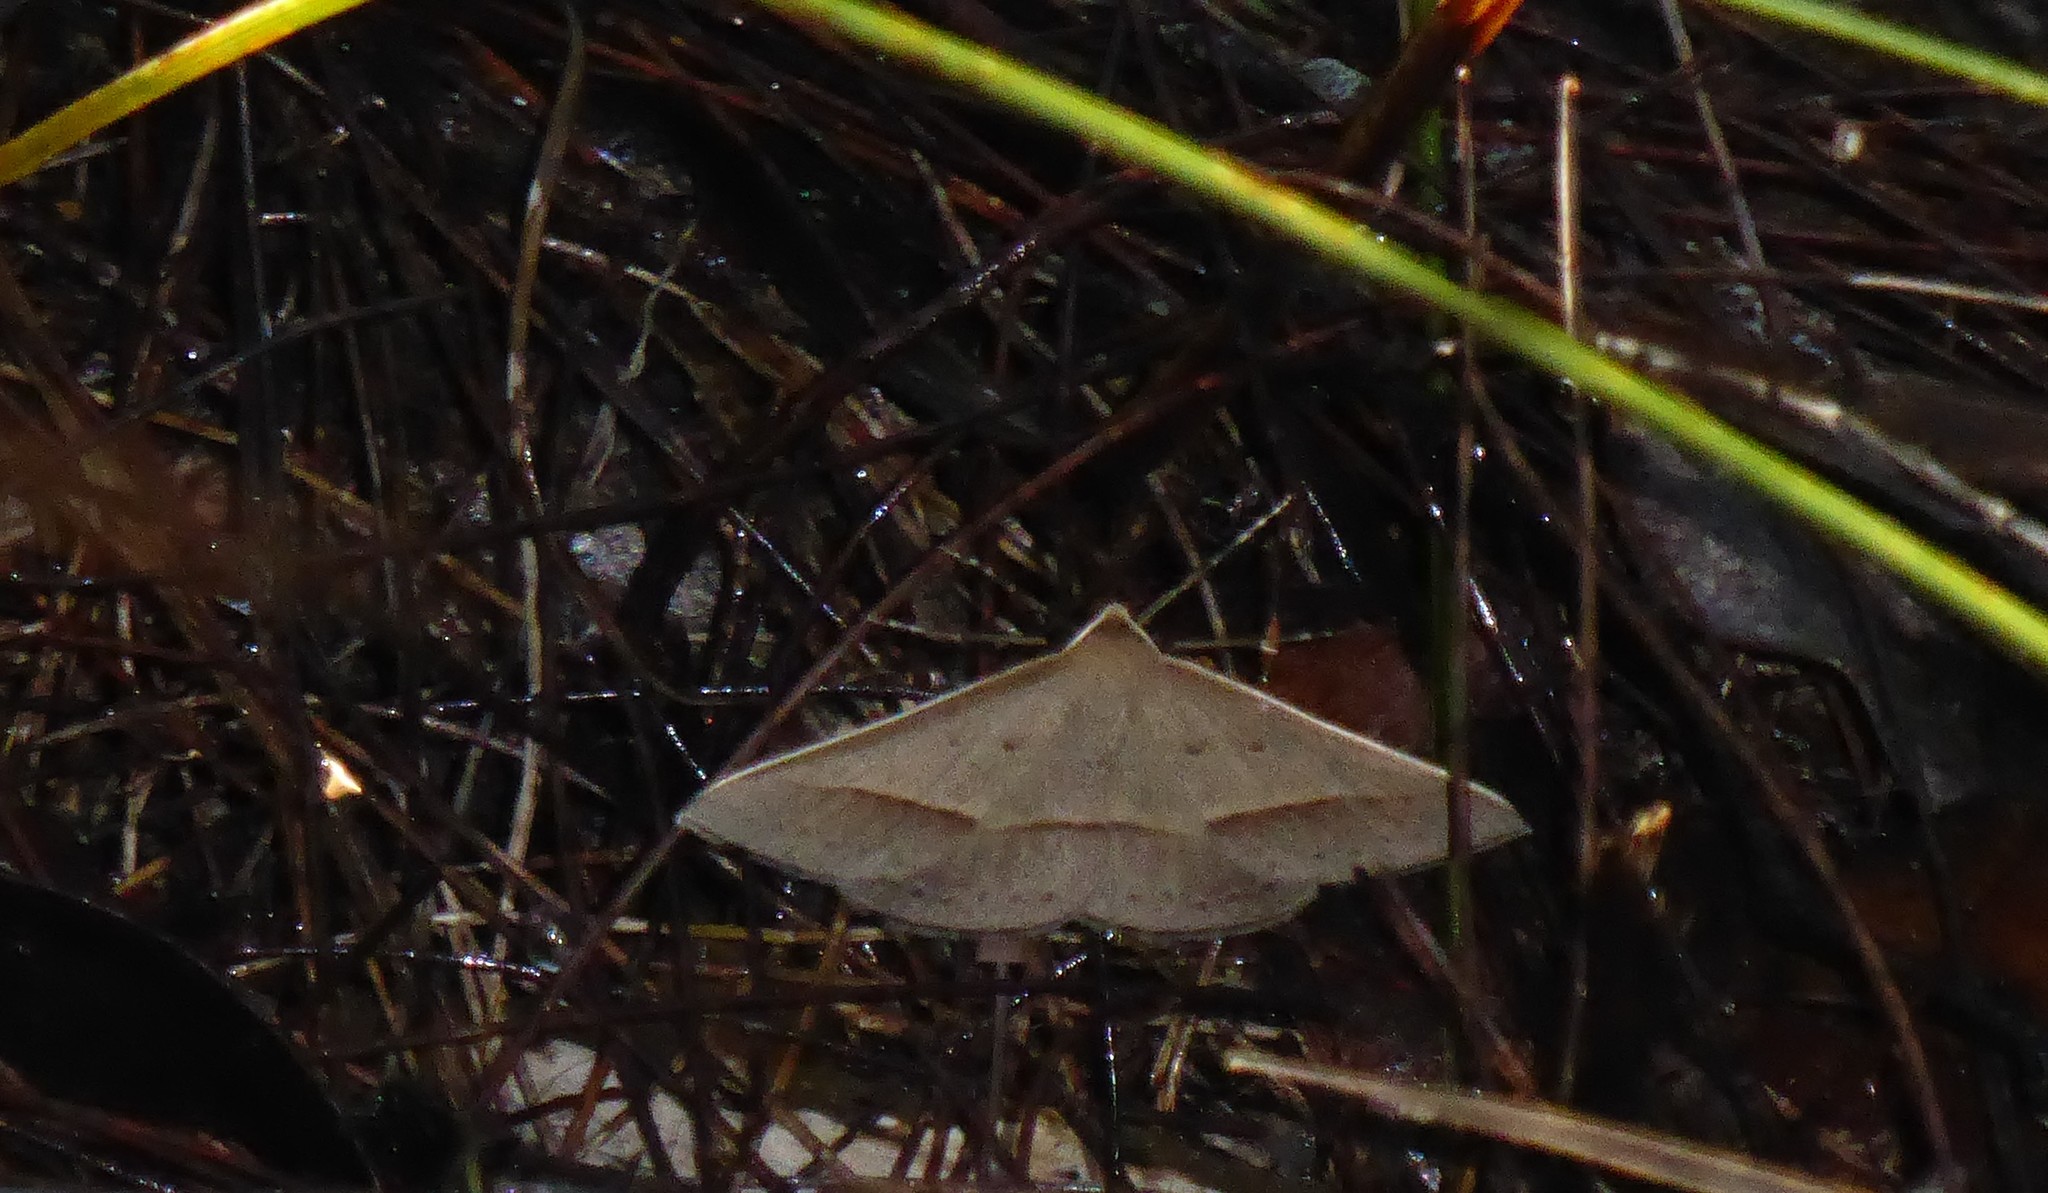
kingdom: Animalia
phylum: Arthropoda
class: Insecta
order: Lepidoptera
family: Geometridae
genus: Epidesmia
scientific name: Epidesmia tryxaria
